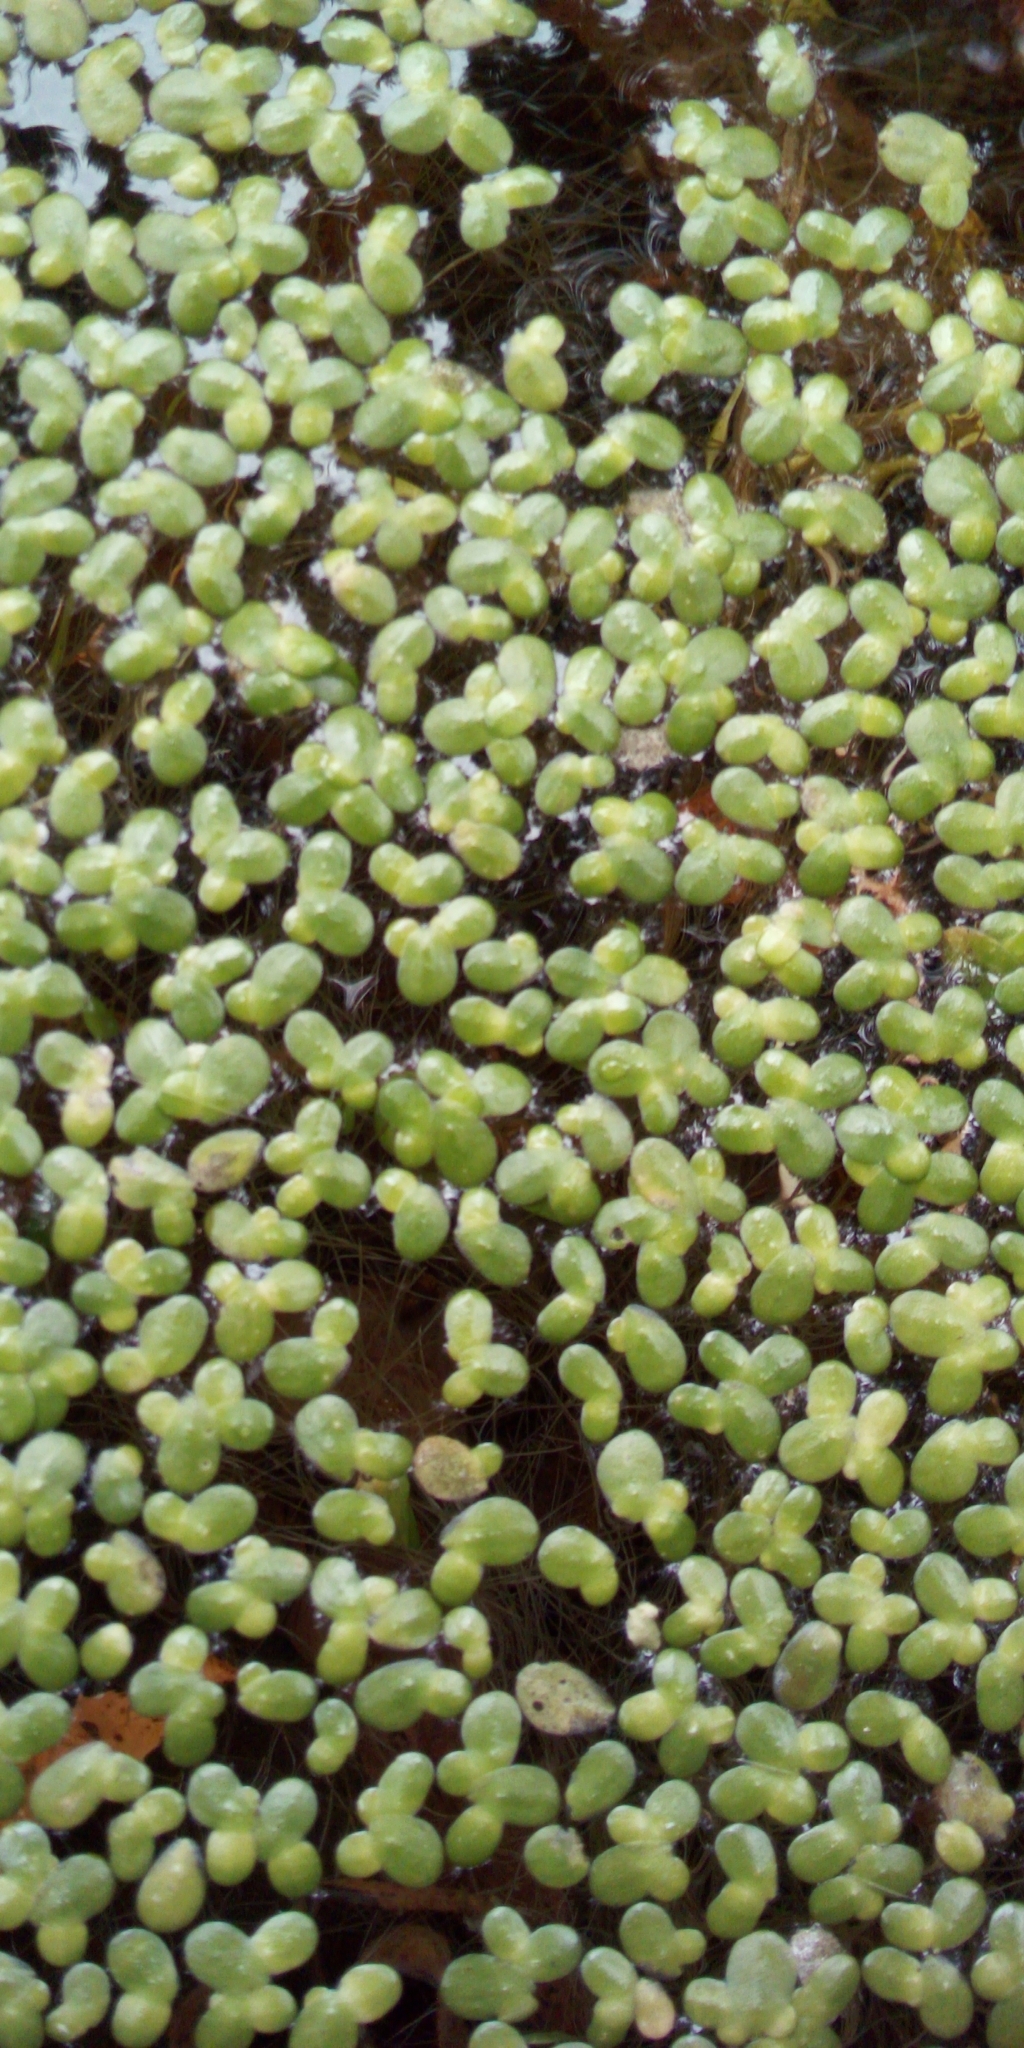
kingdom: Plantae
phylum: Tracheophyta
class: Liliopsida
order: Alismatales
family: Araceae
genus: Lemna
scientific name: Lemna minor
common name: Common duckweed
